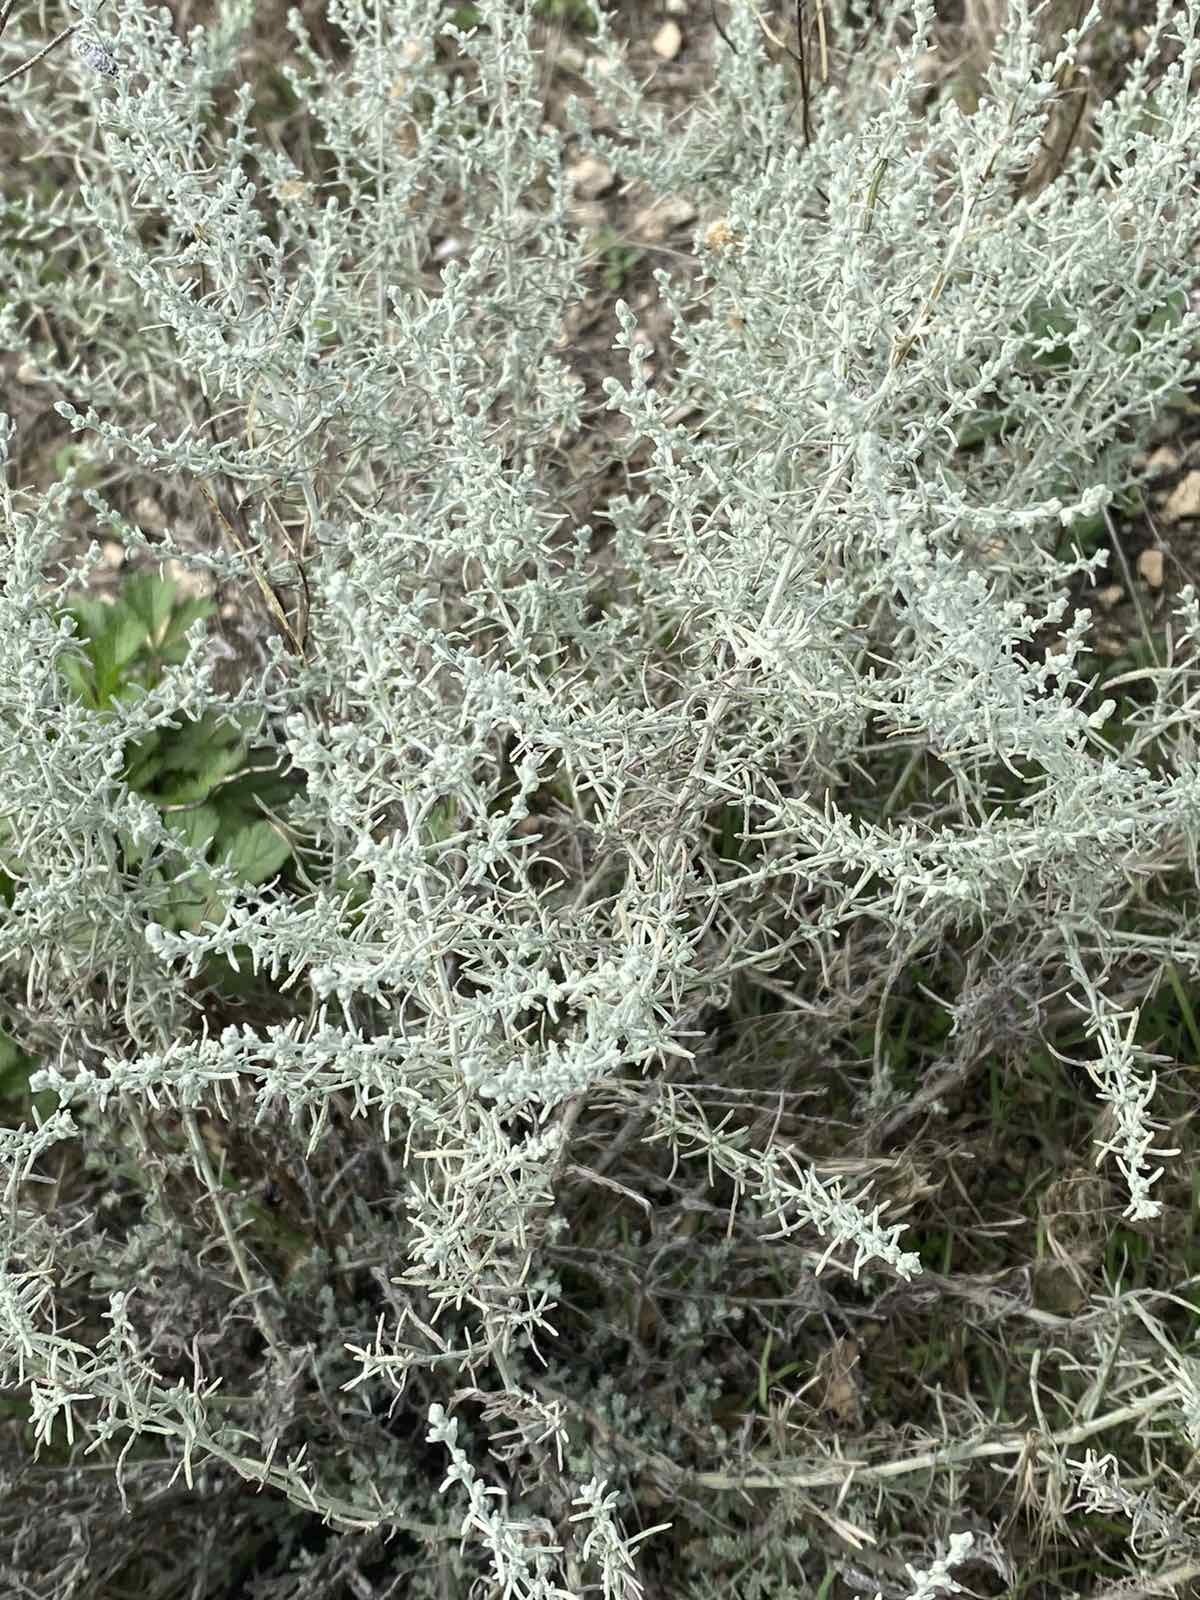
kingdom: Plantae
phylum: Tracheophyta
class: Magnoliopsida
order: Asterales
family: Asteraceae
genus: Artemisia
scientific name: Artemisia taurica
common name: Tauric wormwood
